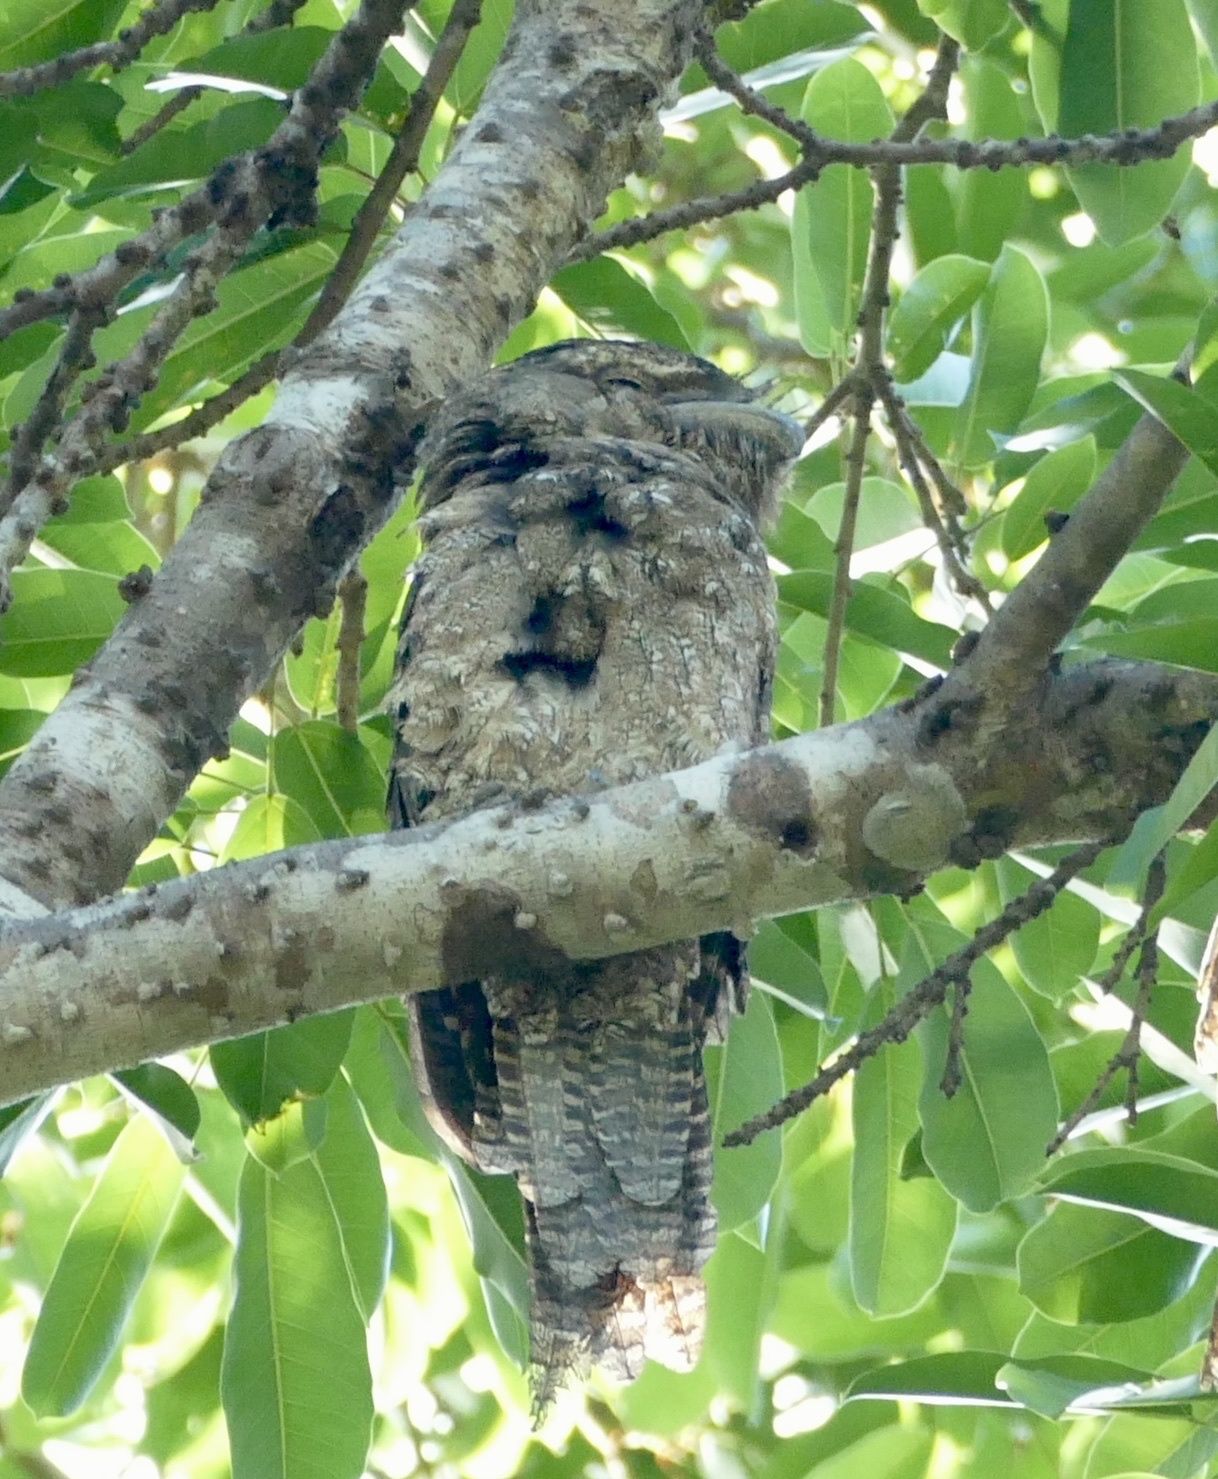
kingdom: Animalia
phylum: Chordata
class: Aves
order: Caprimulgiformes
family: Podargidae
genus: Podargus
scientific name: Podargus papuensis
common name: Papuan frogmouth
